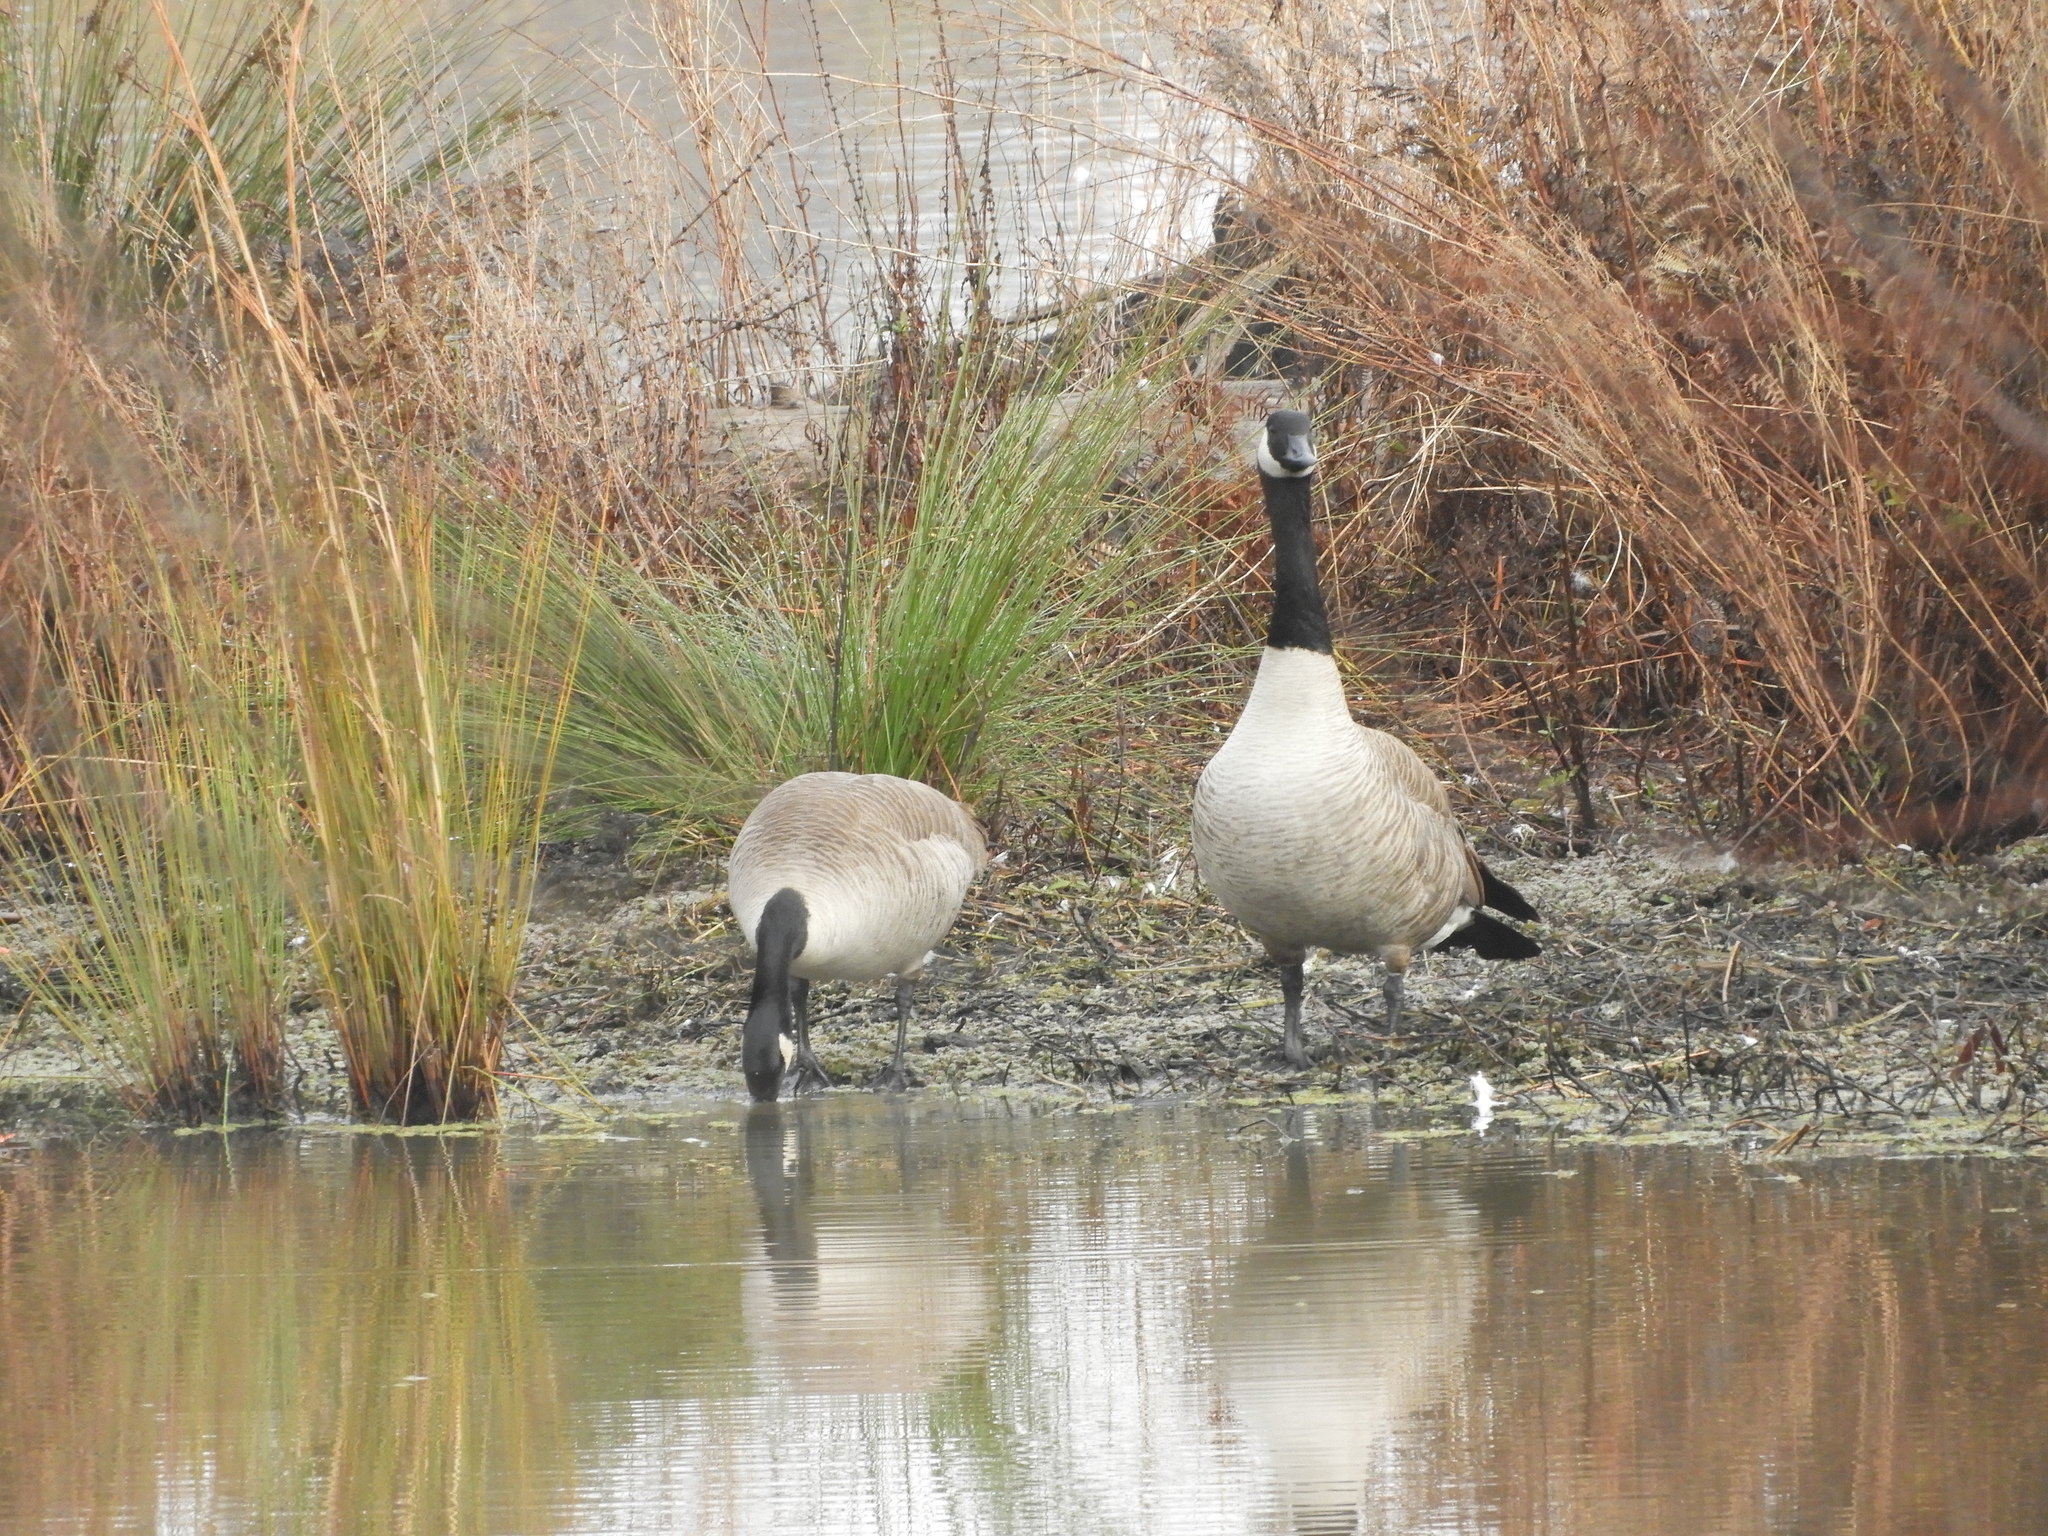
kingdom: Animalia
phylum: Chordata
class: Aves
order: Anseriformes
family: Anatidae
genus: Branta
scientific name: Branta canadensis
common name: Canada goose
